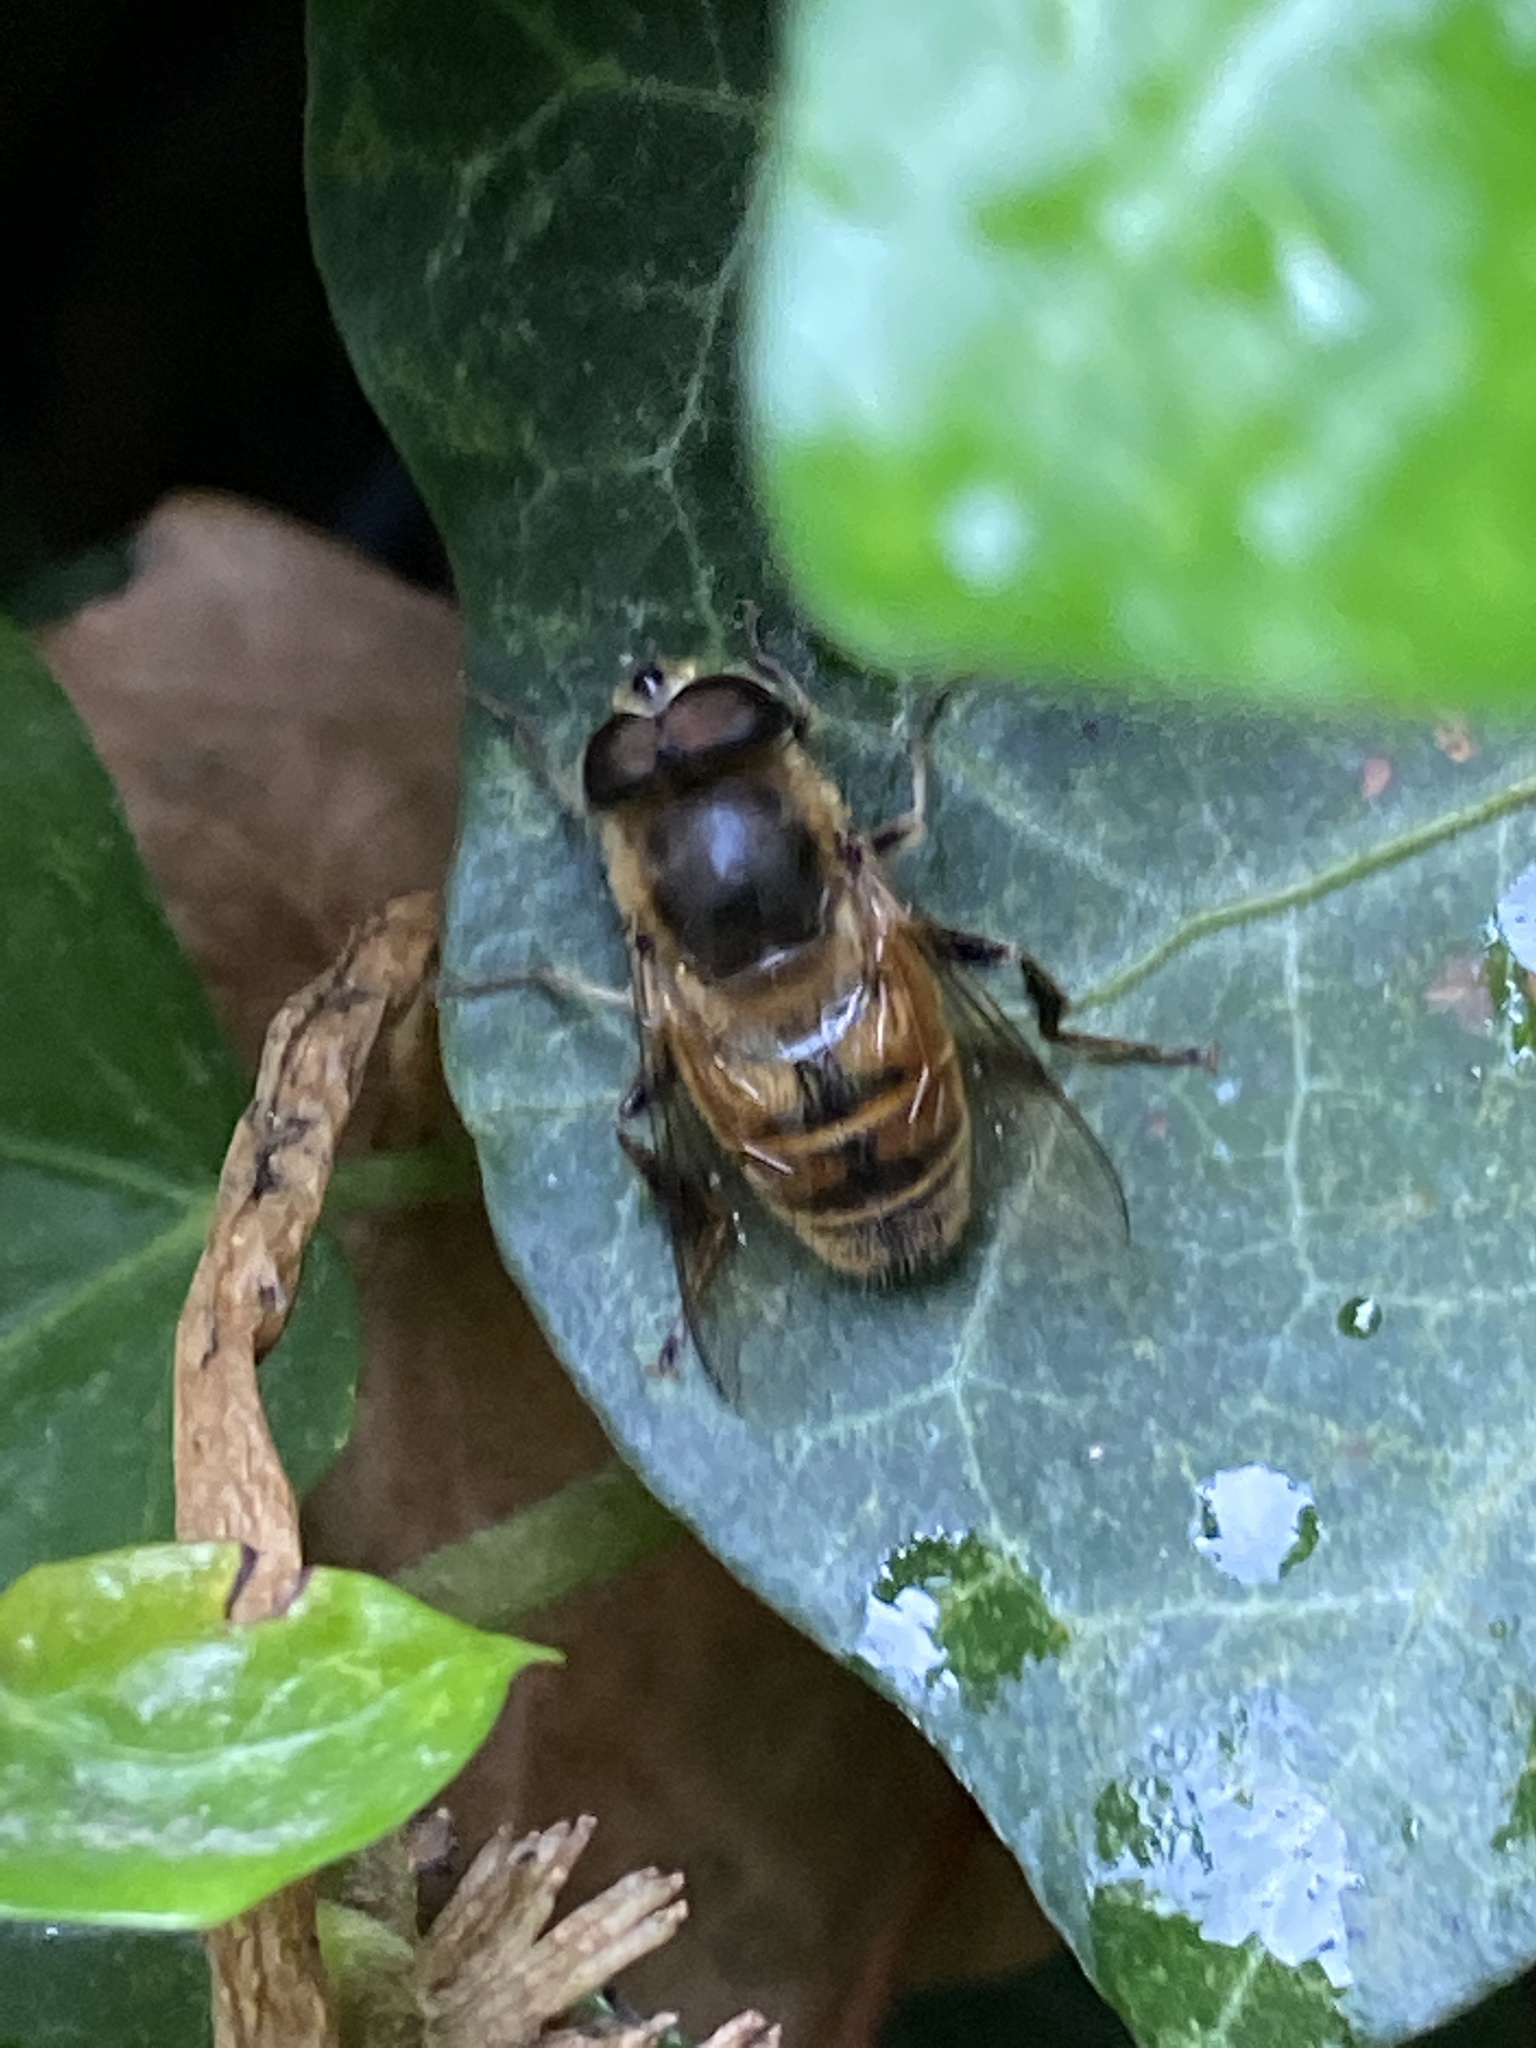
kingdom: Animalia
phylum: Arthropoda
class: Insecta
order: Diptera
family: Syrphidae
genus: Eristalis
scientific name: Eristalis tenax
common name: Drone fly
